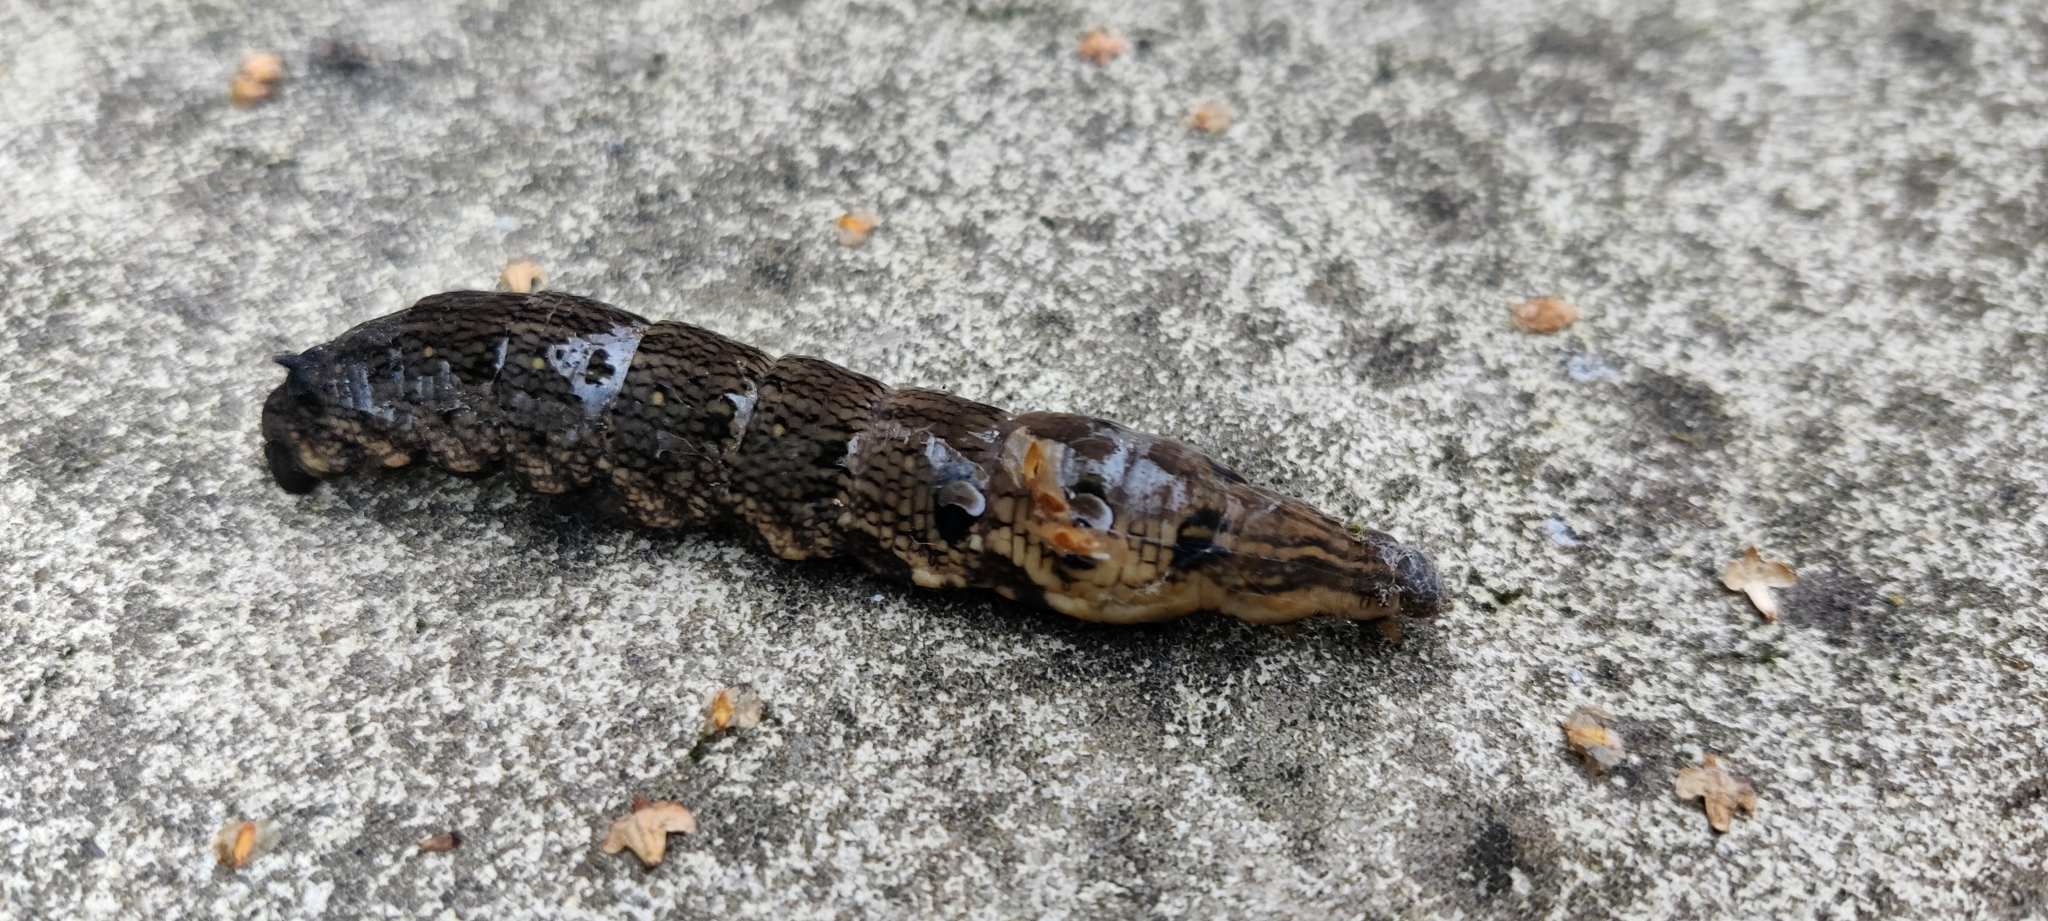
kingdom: Animalia
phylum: Arthropoda
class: Insecta
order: Lepidoptera
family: Sphingidae
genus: Deilephila
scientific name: Deilephila elpenor
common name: Elephant hawk-moth
